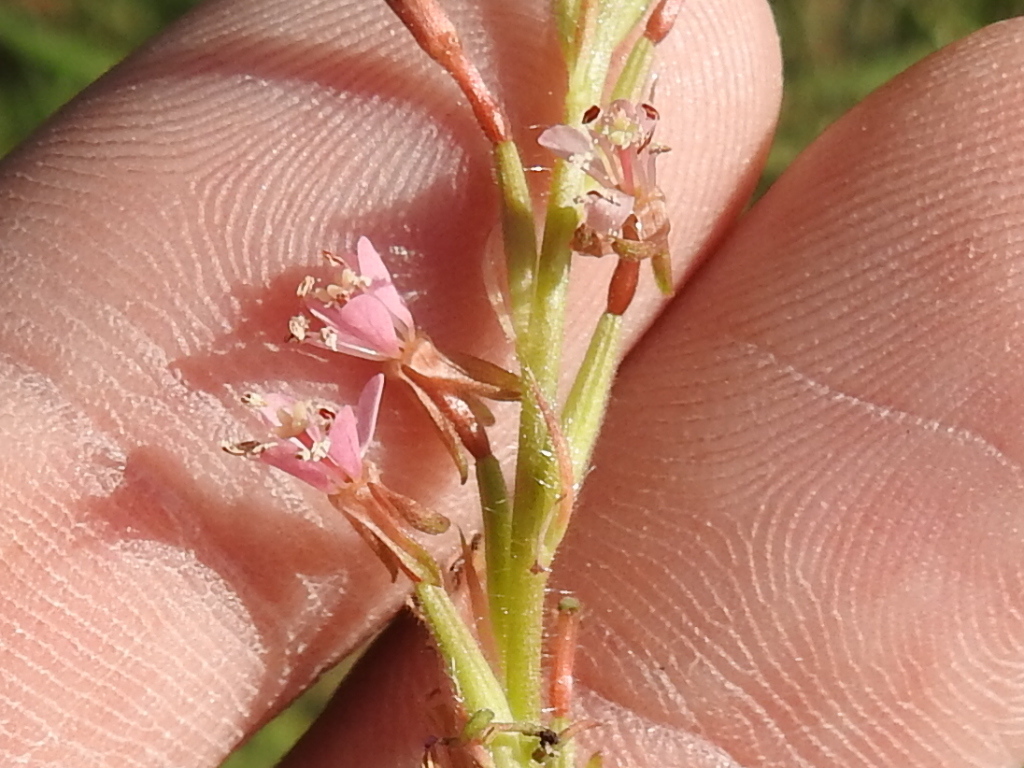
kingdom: Plantae
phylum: Tracheophyta
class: Magnoliopsida
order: Myrtales
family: Onagraceae
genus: Oenothera
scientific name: Oenothera curtiflora
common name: Velvetweed
